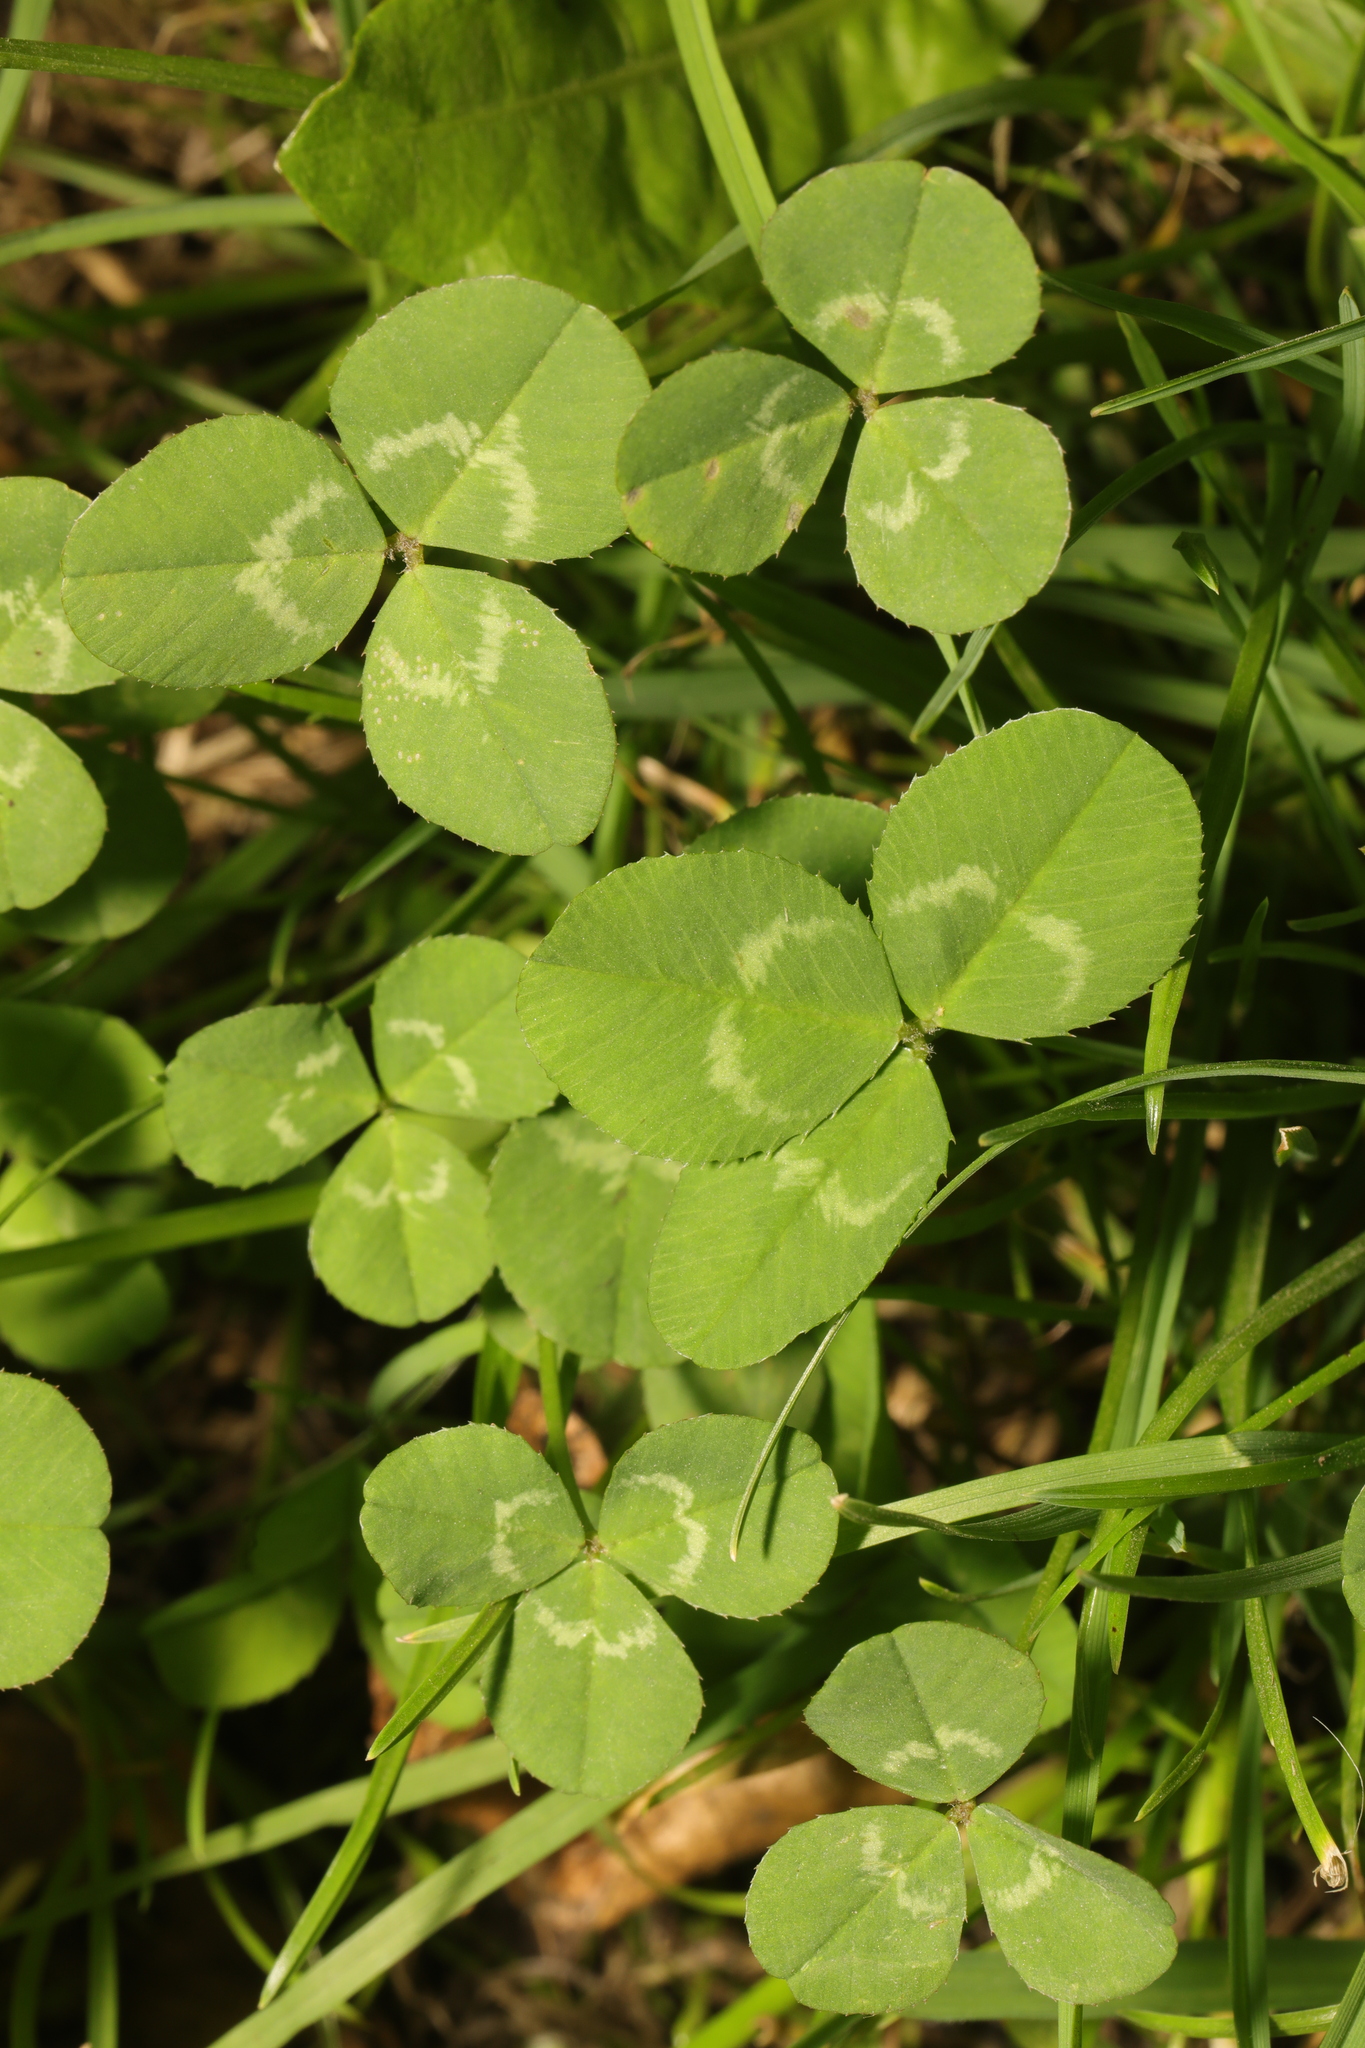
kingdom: Plantae
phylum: Tracheophyta
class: Magnoliopsida
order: Fabales
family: Fabaceae
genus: Trifolium
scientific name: Trifolium repens
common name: White clover
